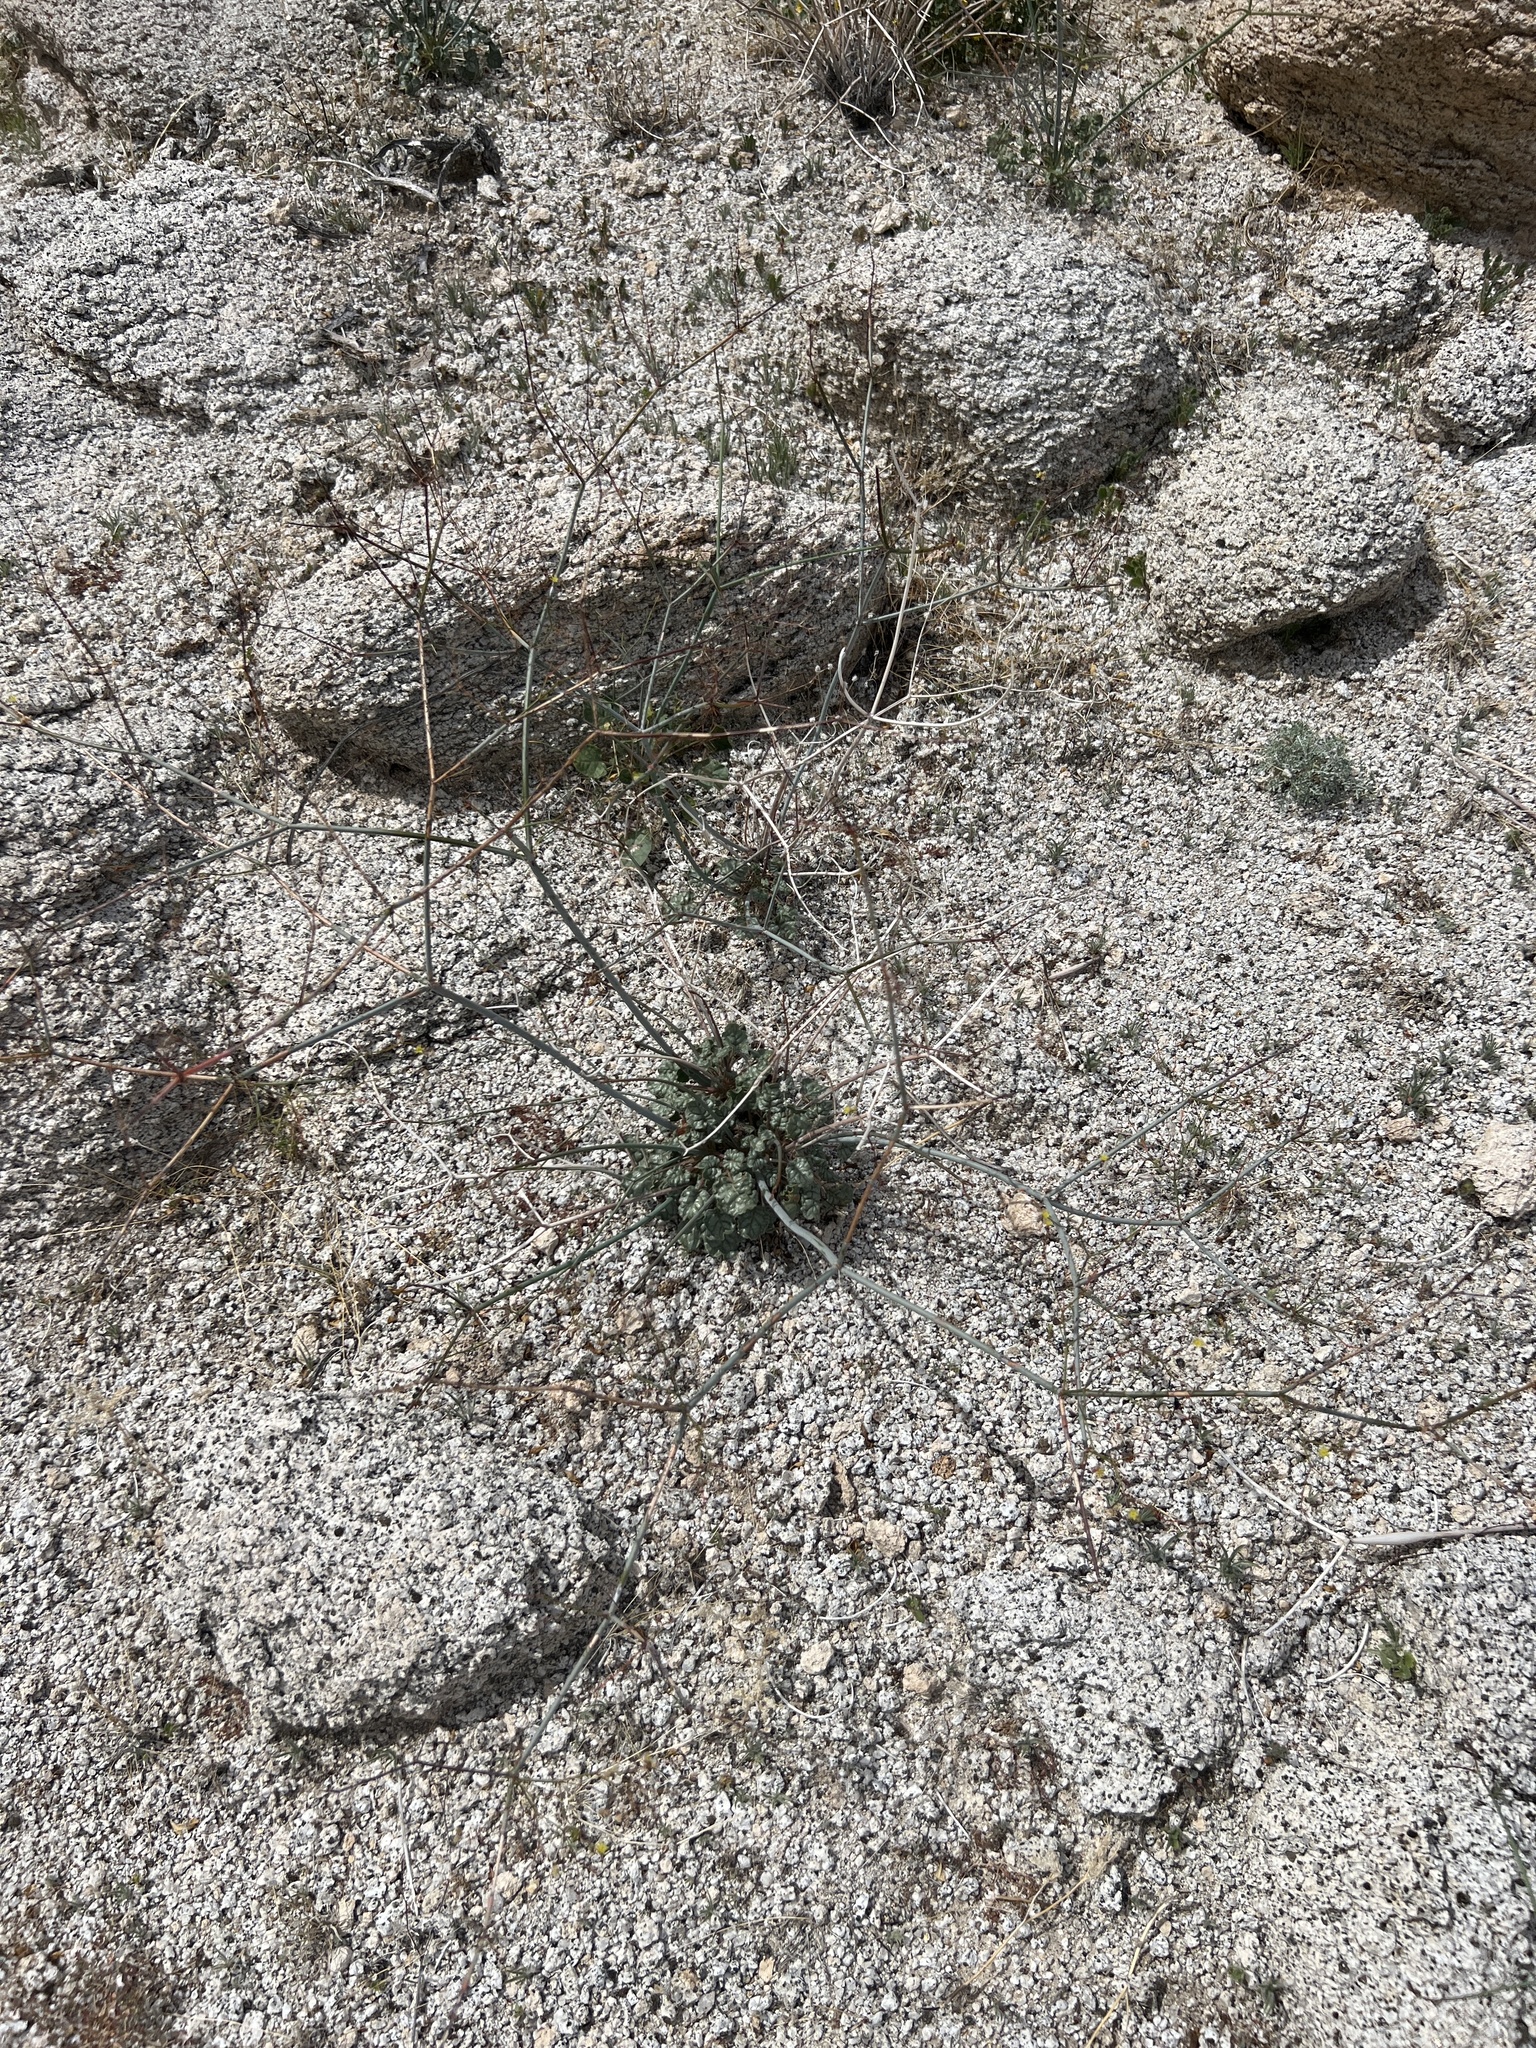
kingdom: Plantae
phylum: Tracheophyta
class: Magnoliopsida
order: Caryophyllales
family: Polygonaceae
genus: Eriogonum
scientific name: Eriogonum inflatum
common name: Desert trumpet
